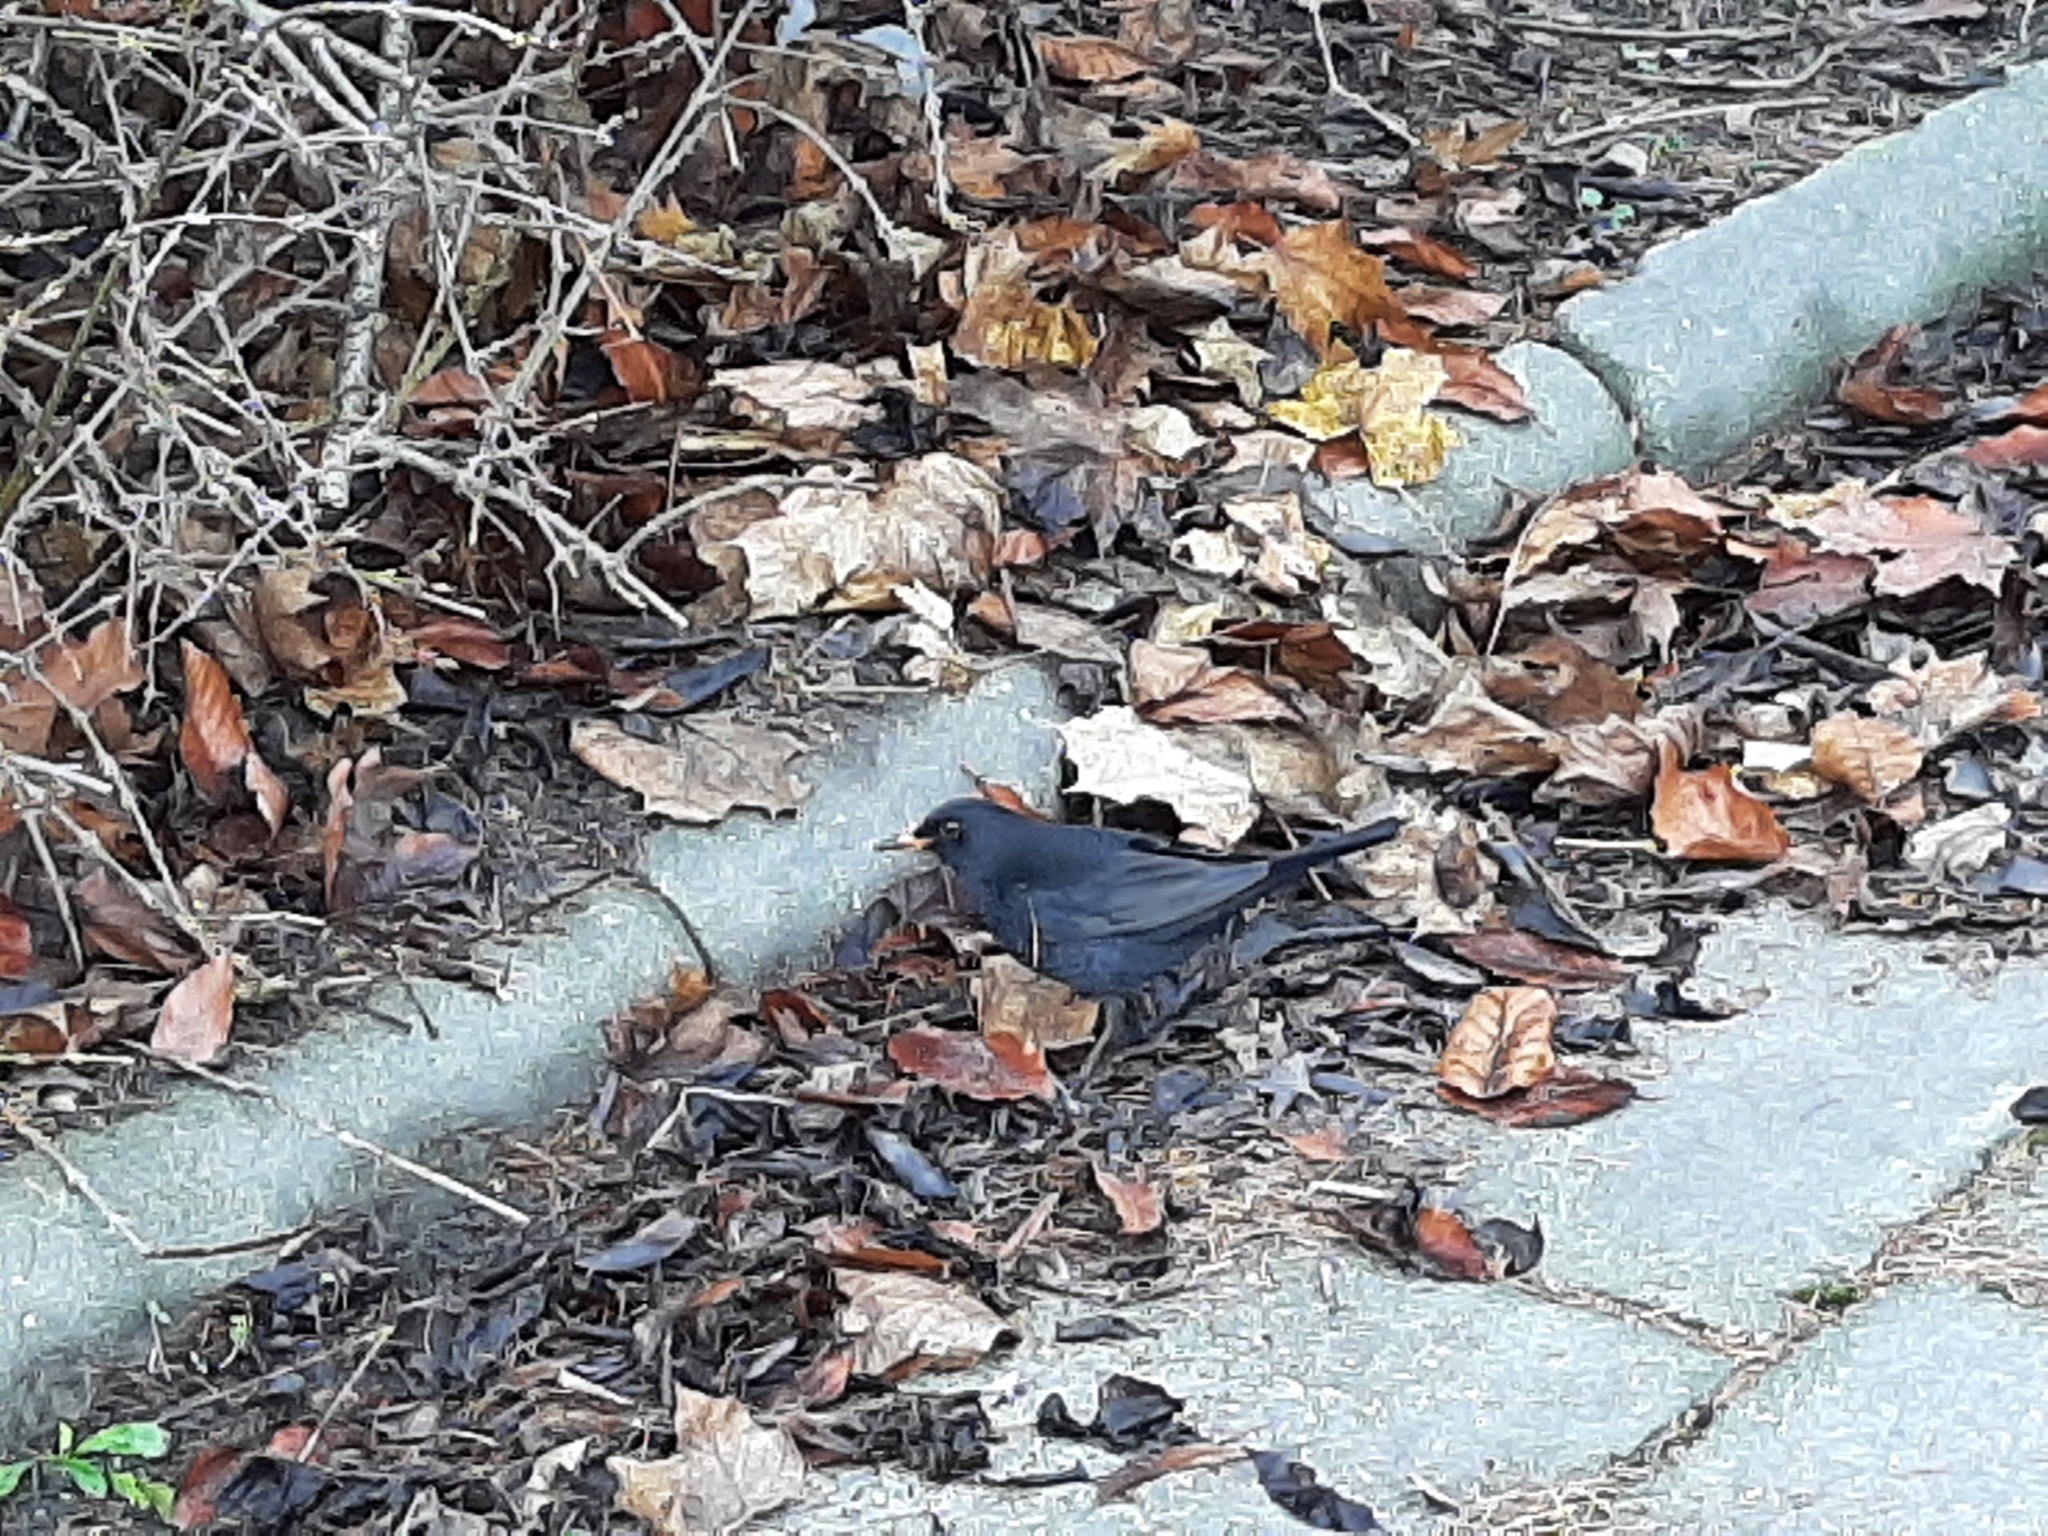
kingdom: Animalia
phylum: Chordata
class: Aves
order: Passeriformes
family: Turdidae
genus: Turdus
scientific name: Turdus merula
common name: Common blackbird
